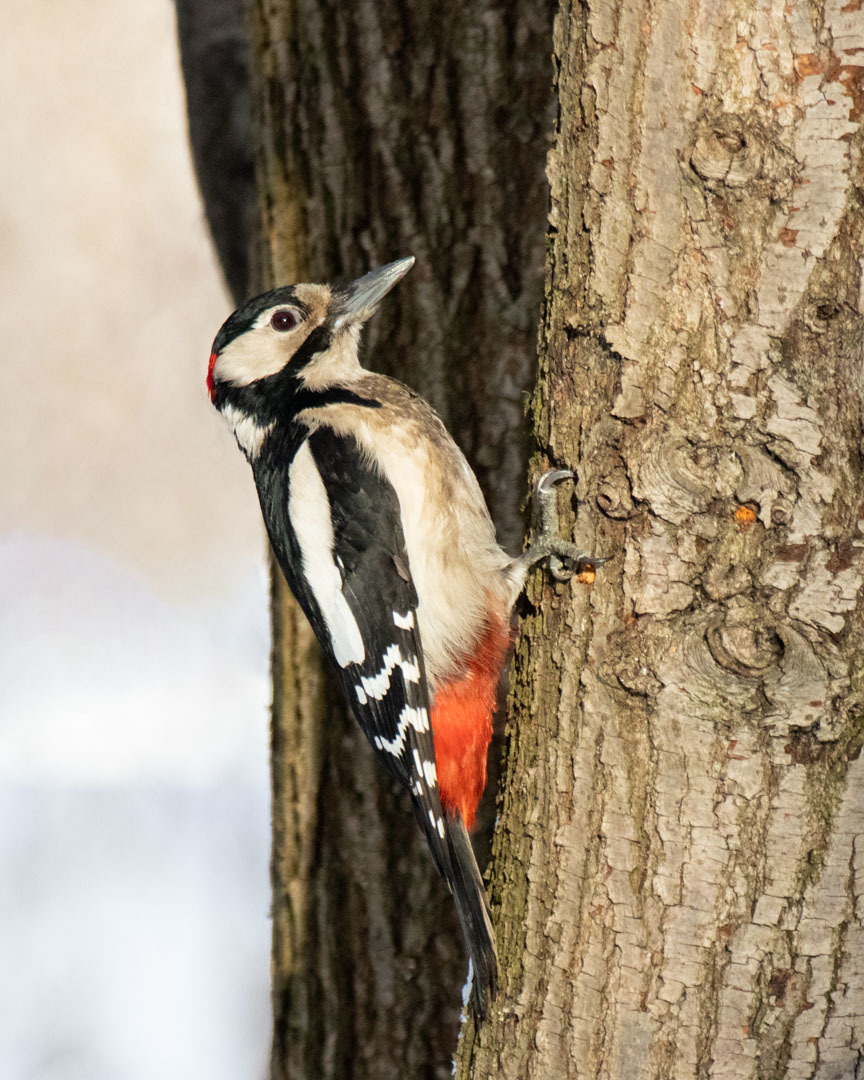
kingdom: Animalia
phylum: Chordata
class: Aves
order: Piciformes
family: Picidae
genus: Dendrocopos
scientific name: Dendrocopos major
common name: Great spotted woodpecker
